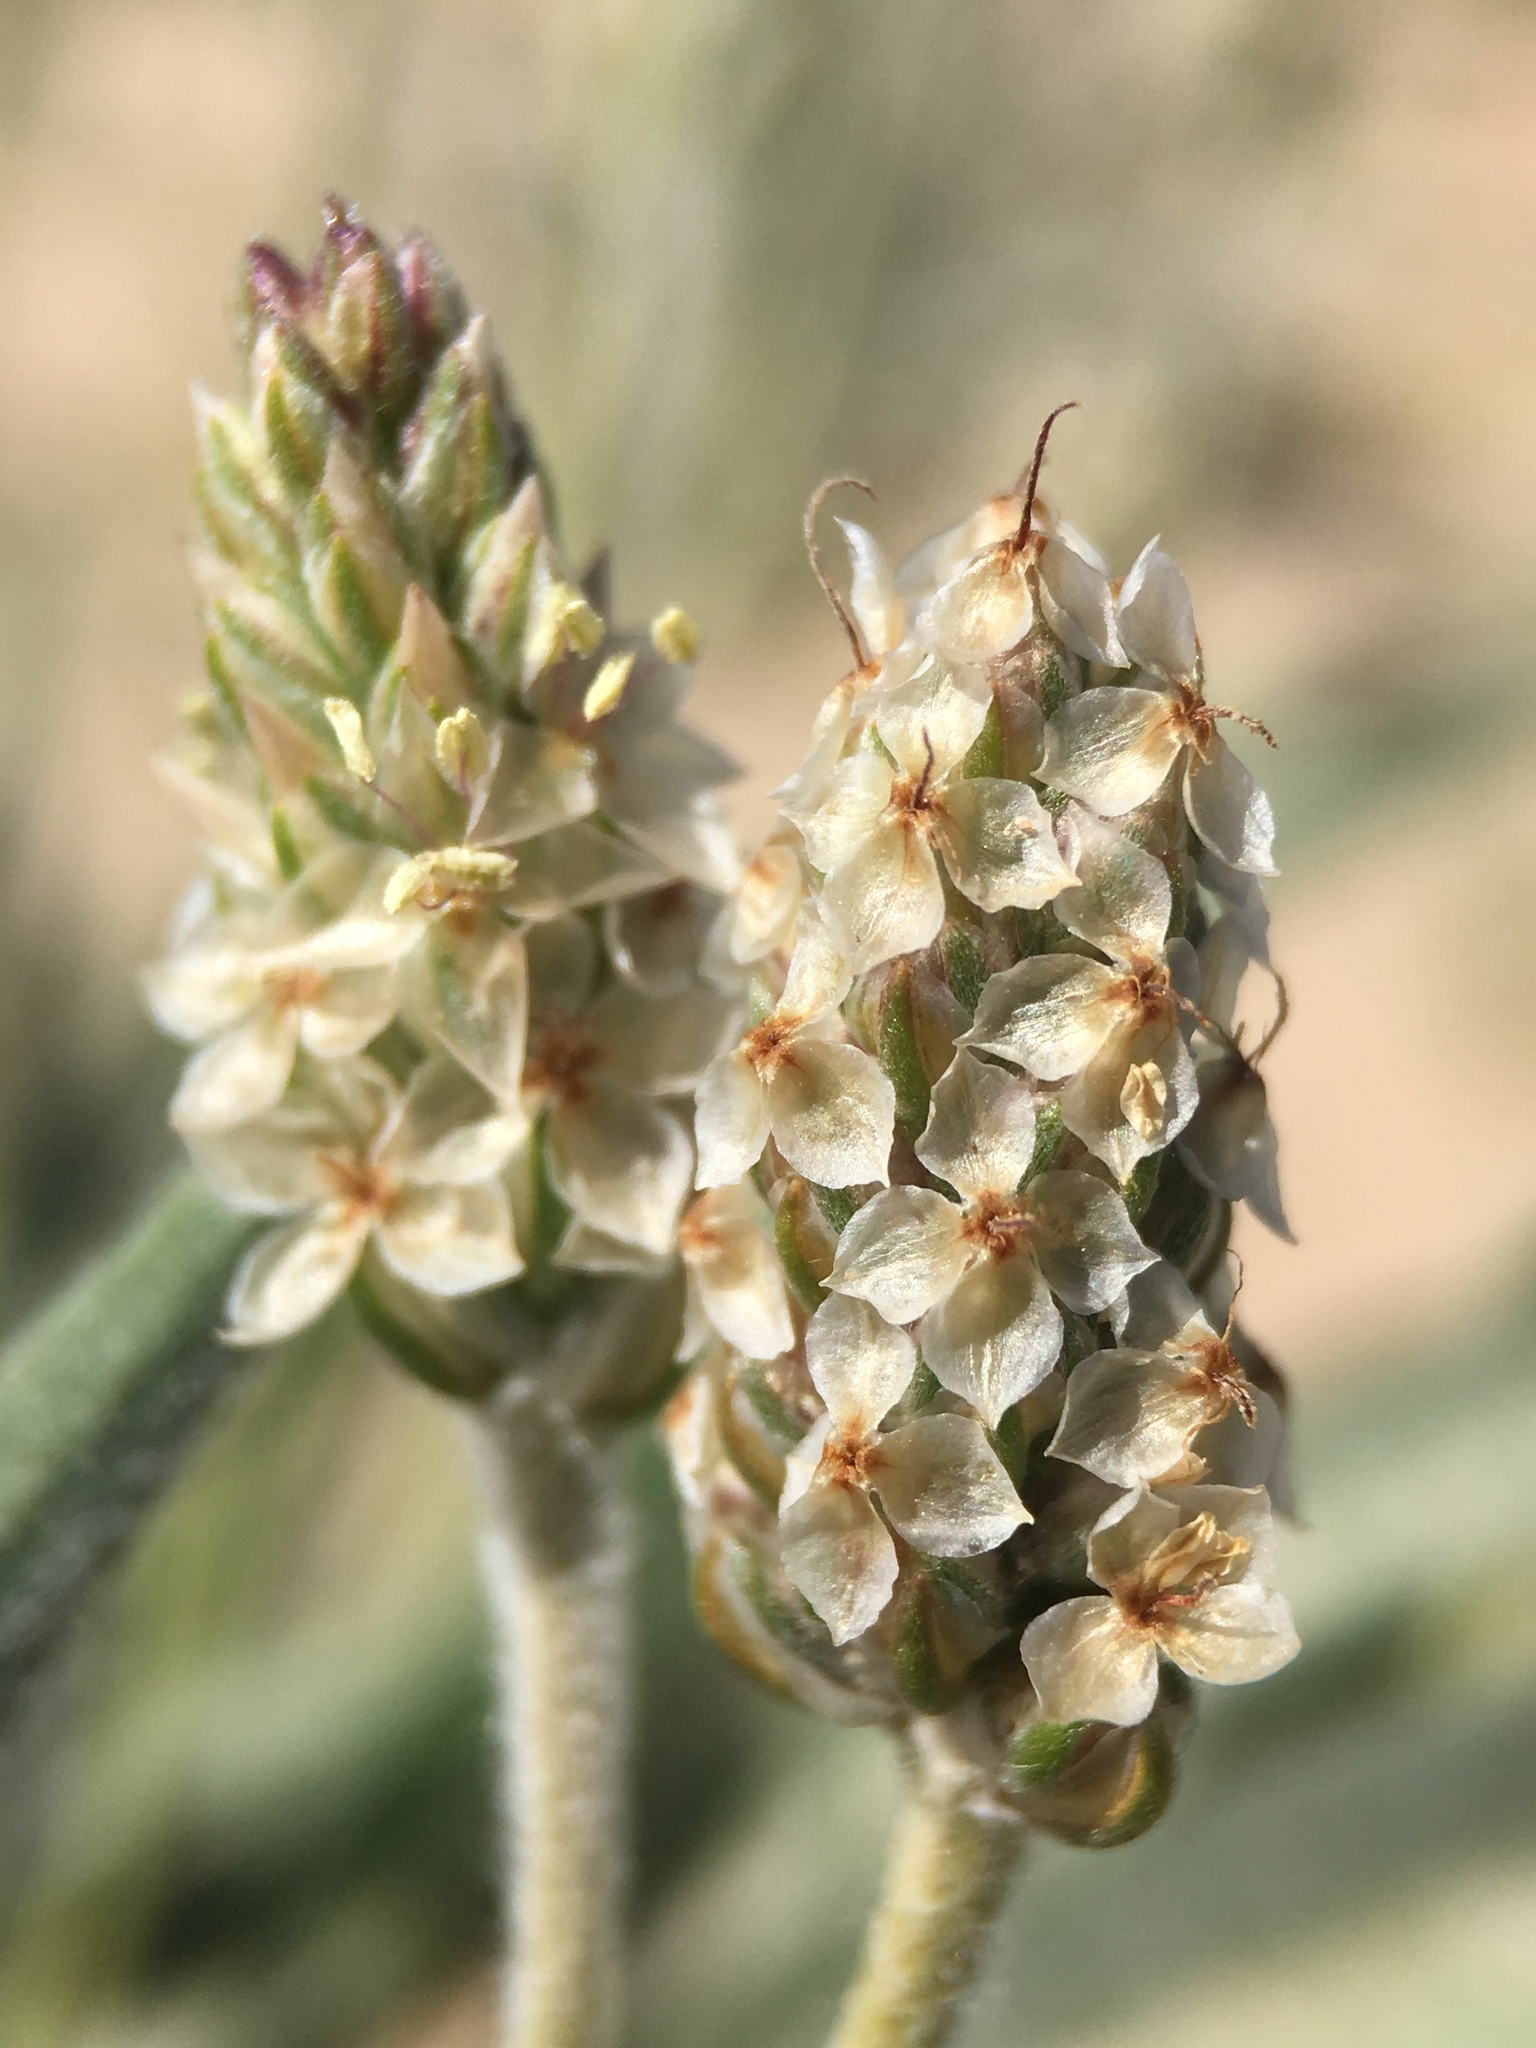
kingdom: Plantae
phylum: Tracheophyta
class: Magnoliopsida
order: Lamiales
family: Plantaginaceae
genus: Plantago
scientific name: Plantago ovata
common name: Blond plantain
